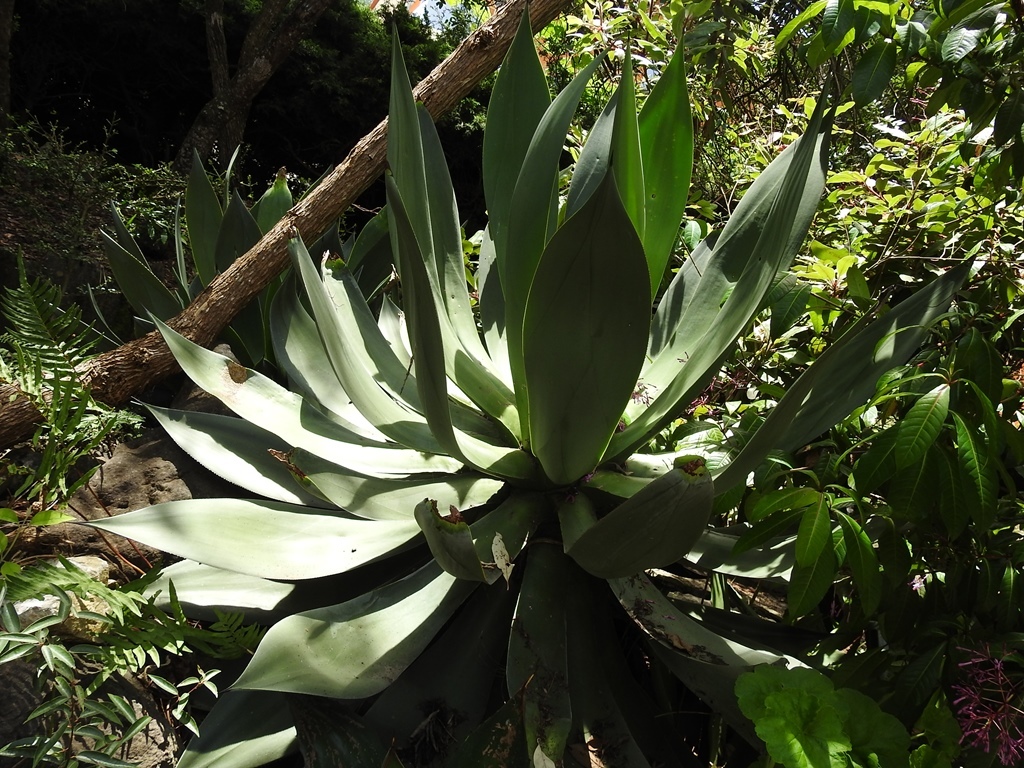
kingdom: Plantae
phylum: Tracheophyta
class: Liliopsida
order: Asparagales
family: Asparagaceae
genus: Agave
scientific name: Agave warelliana
